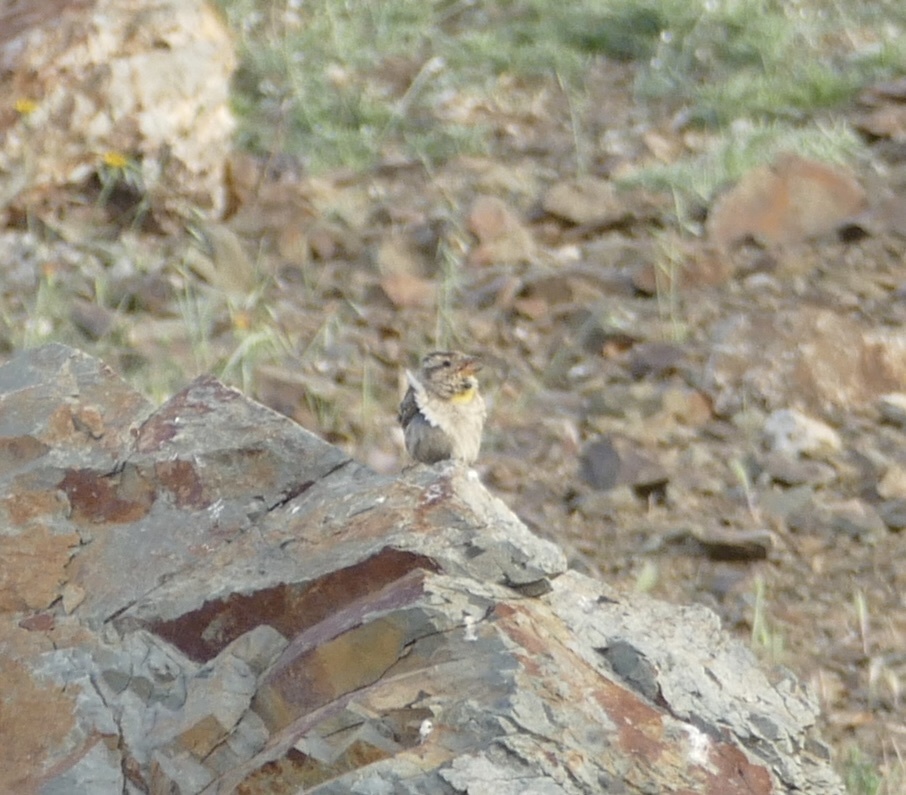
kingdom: Animalia
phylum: Chordata
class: Aves
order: Passeriformes
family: Passeridae
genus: Petronia
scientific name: Petronia petronia
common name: Rock sparrow
